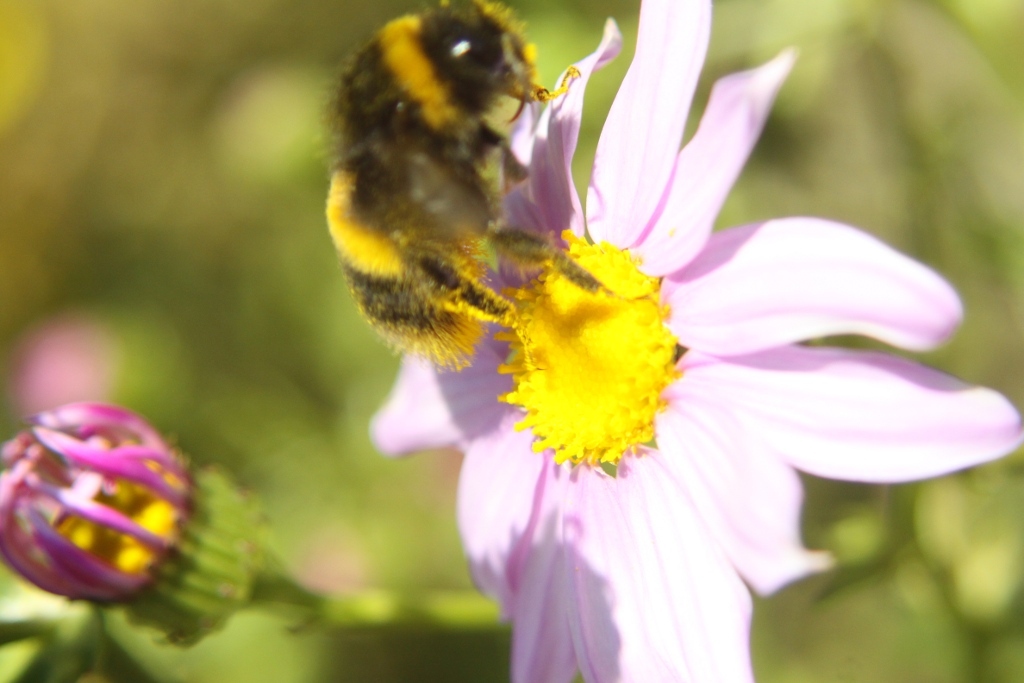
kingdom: Animalia
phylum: Arthropoda
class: Insecta
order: Hymenoptera
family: Apidae
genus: Bombus
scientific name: Bombus terrestris
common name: Buff-tailed bumblebee
